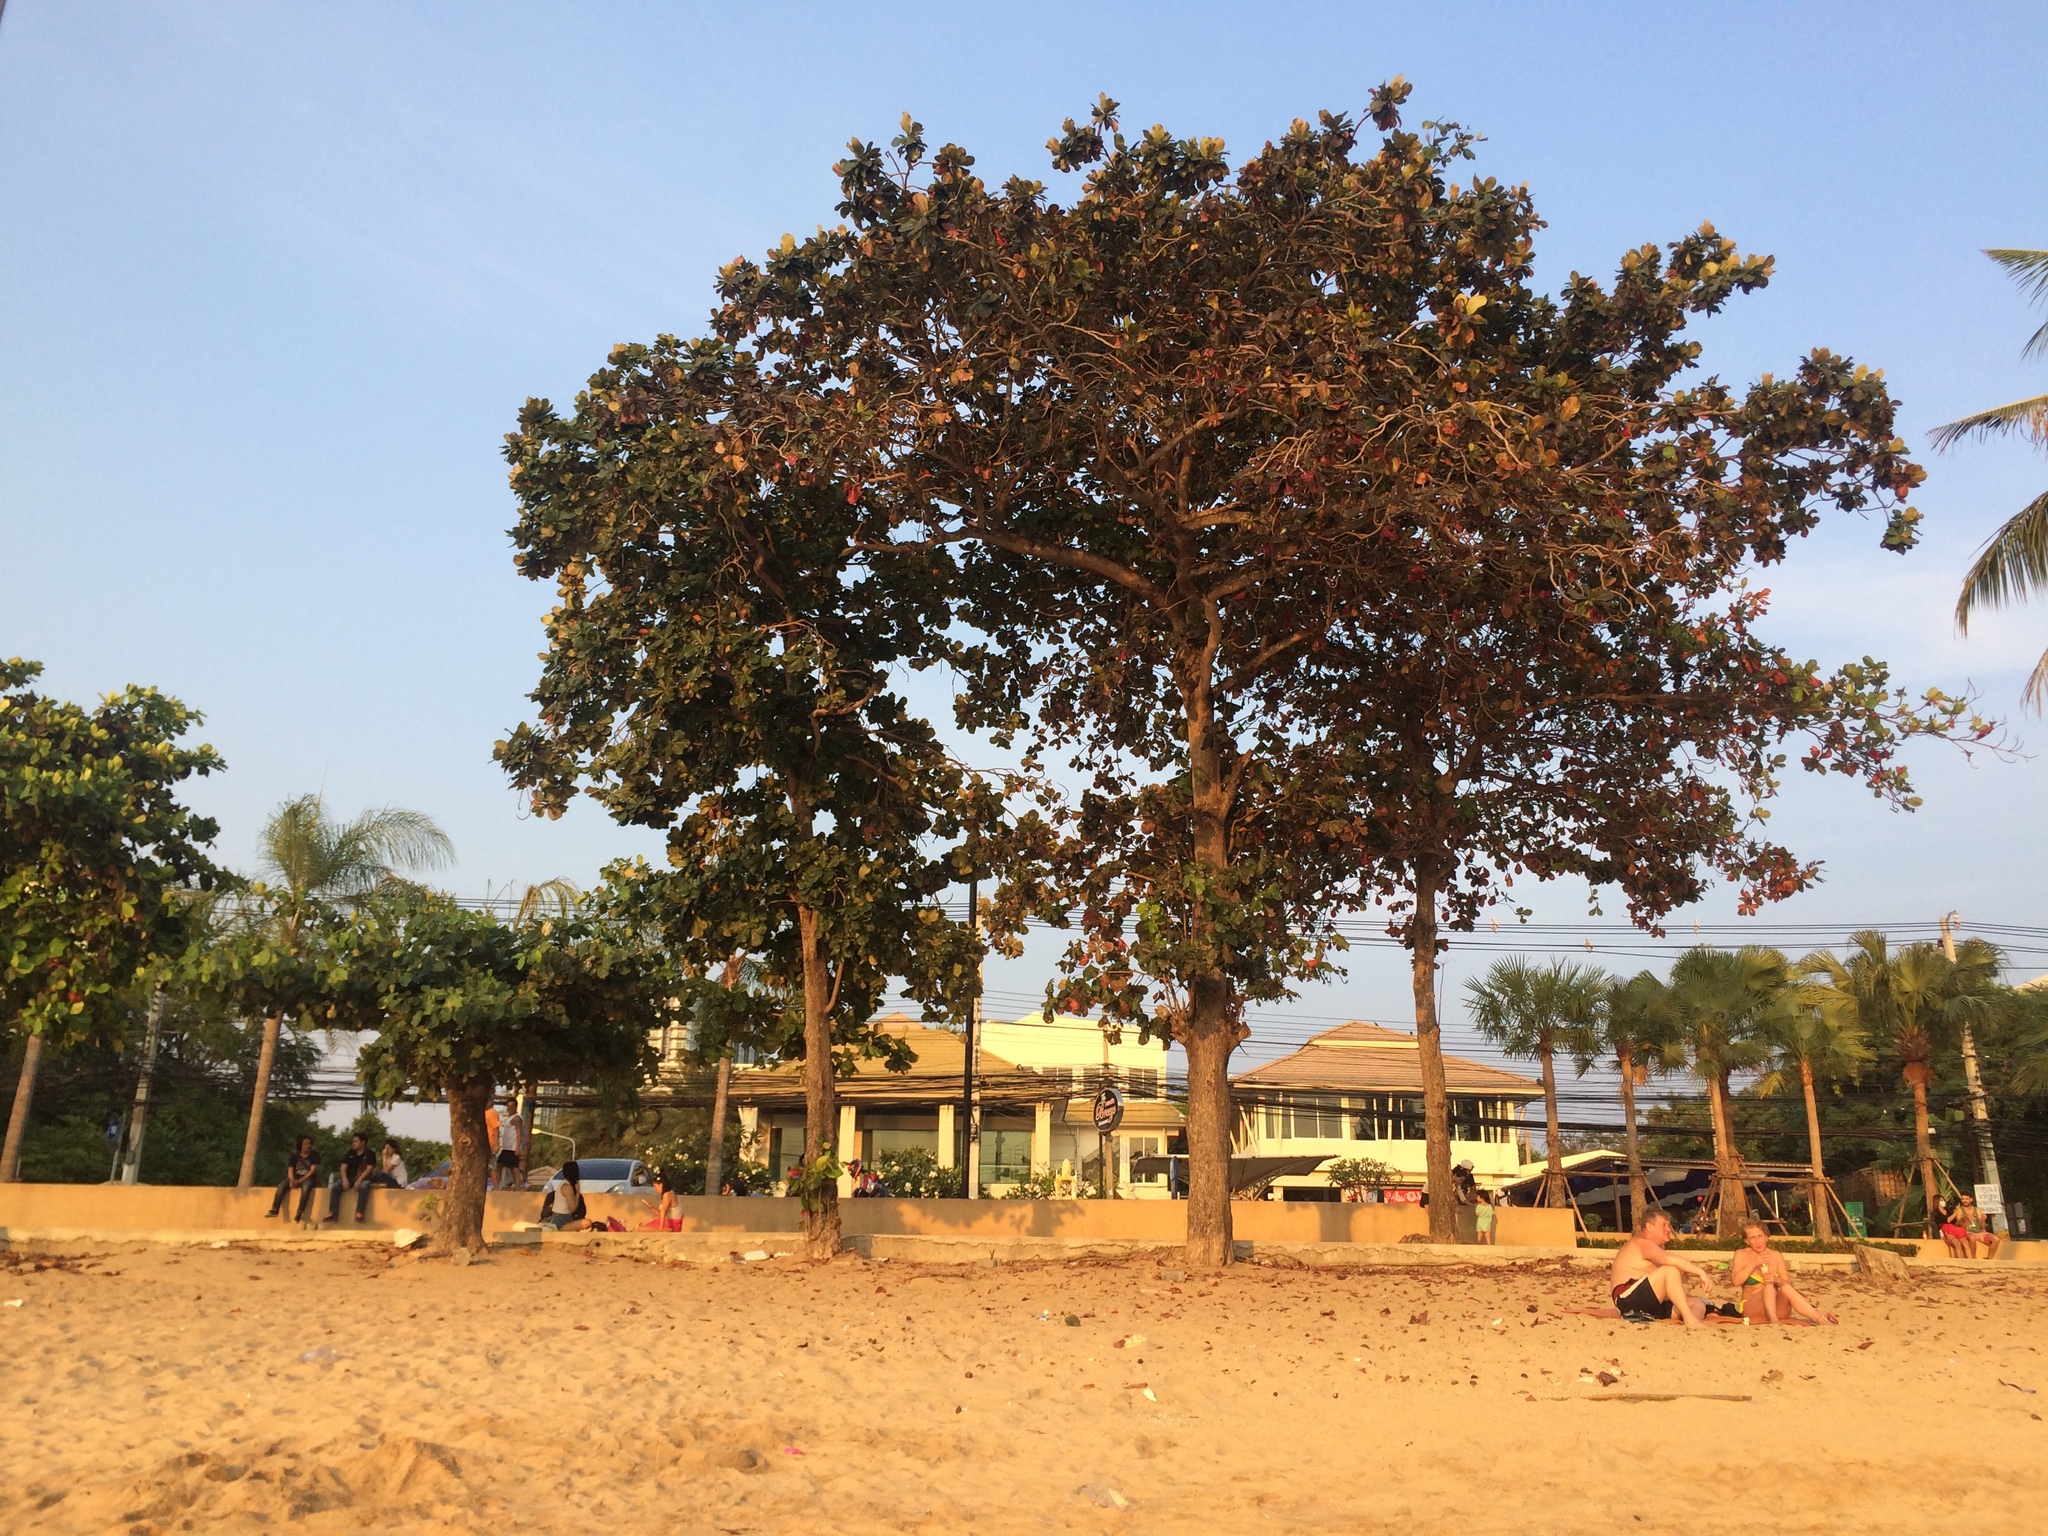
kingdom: Plantae
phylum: Tracheophyta
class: Magnoliopsida
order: Myrtales
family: Combretaceae
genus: Terminalia
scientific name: Terminalia catappa
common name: Tropical almond
